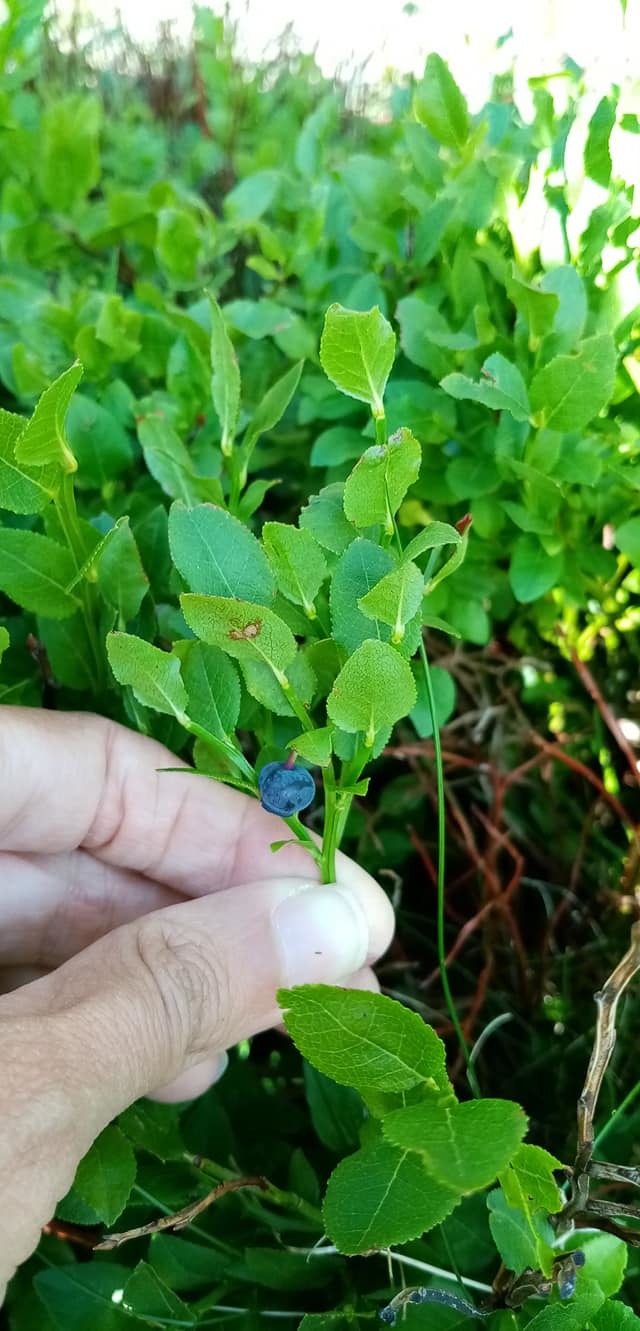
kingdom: Plantae
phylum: Tracheophyta
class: Magnoliopsida
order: Ericales
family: Ericaceae
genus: Vaccinium
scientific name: Vaccinium myrtillus
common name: Bilberry
